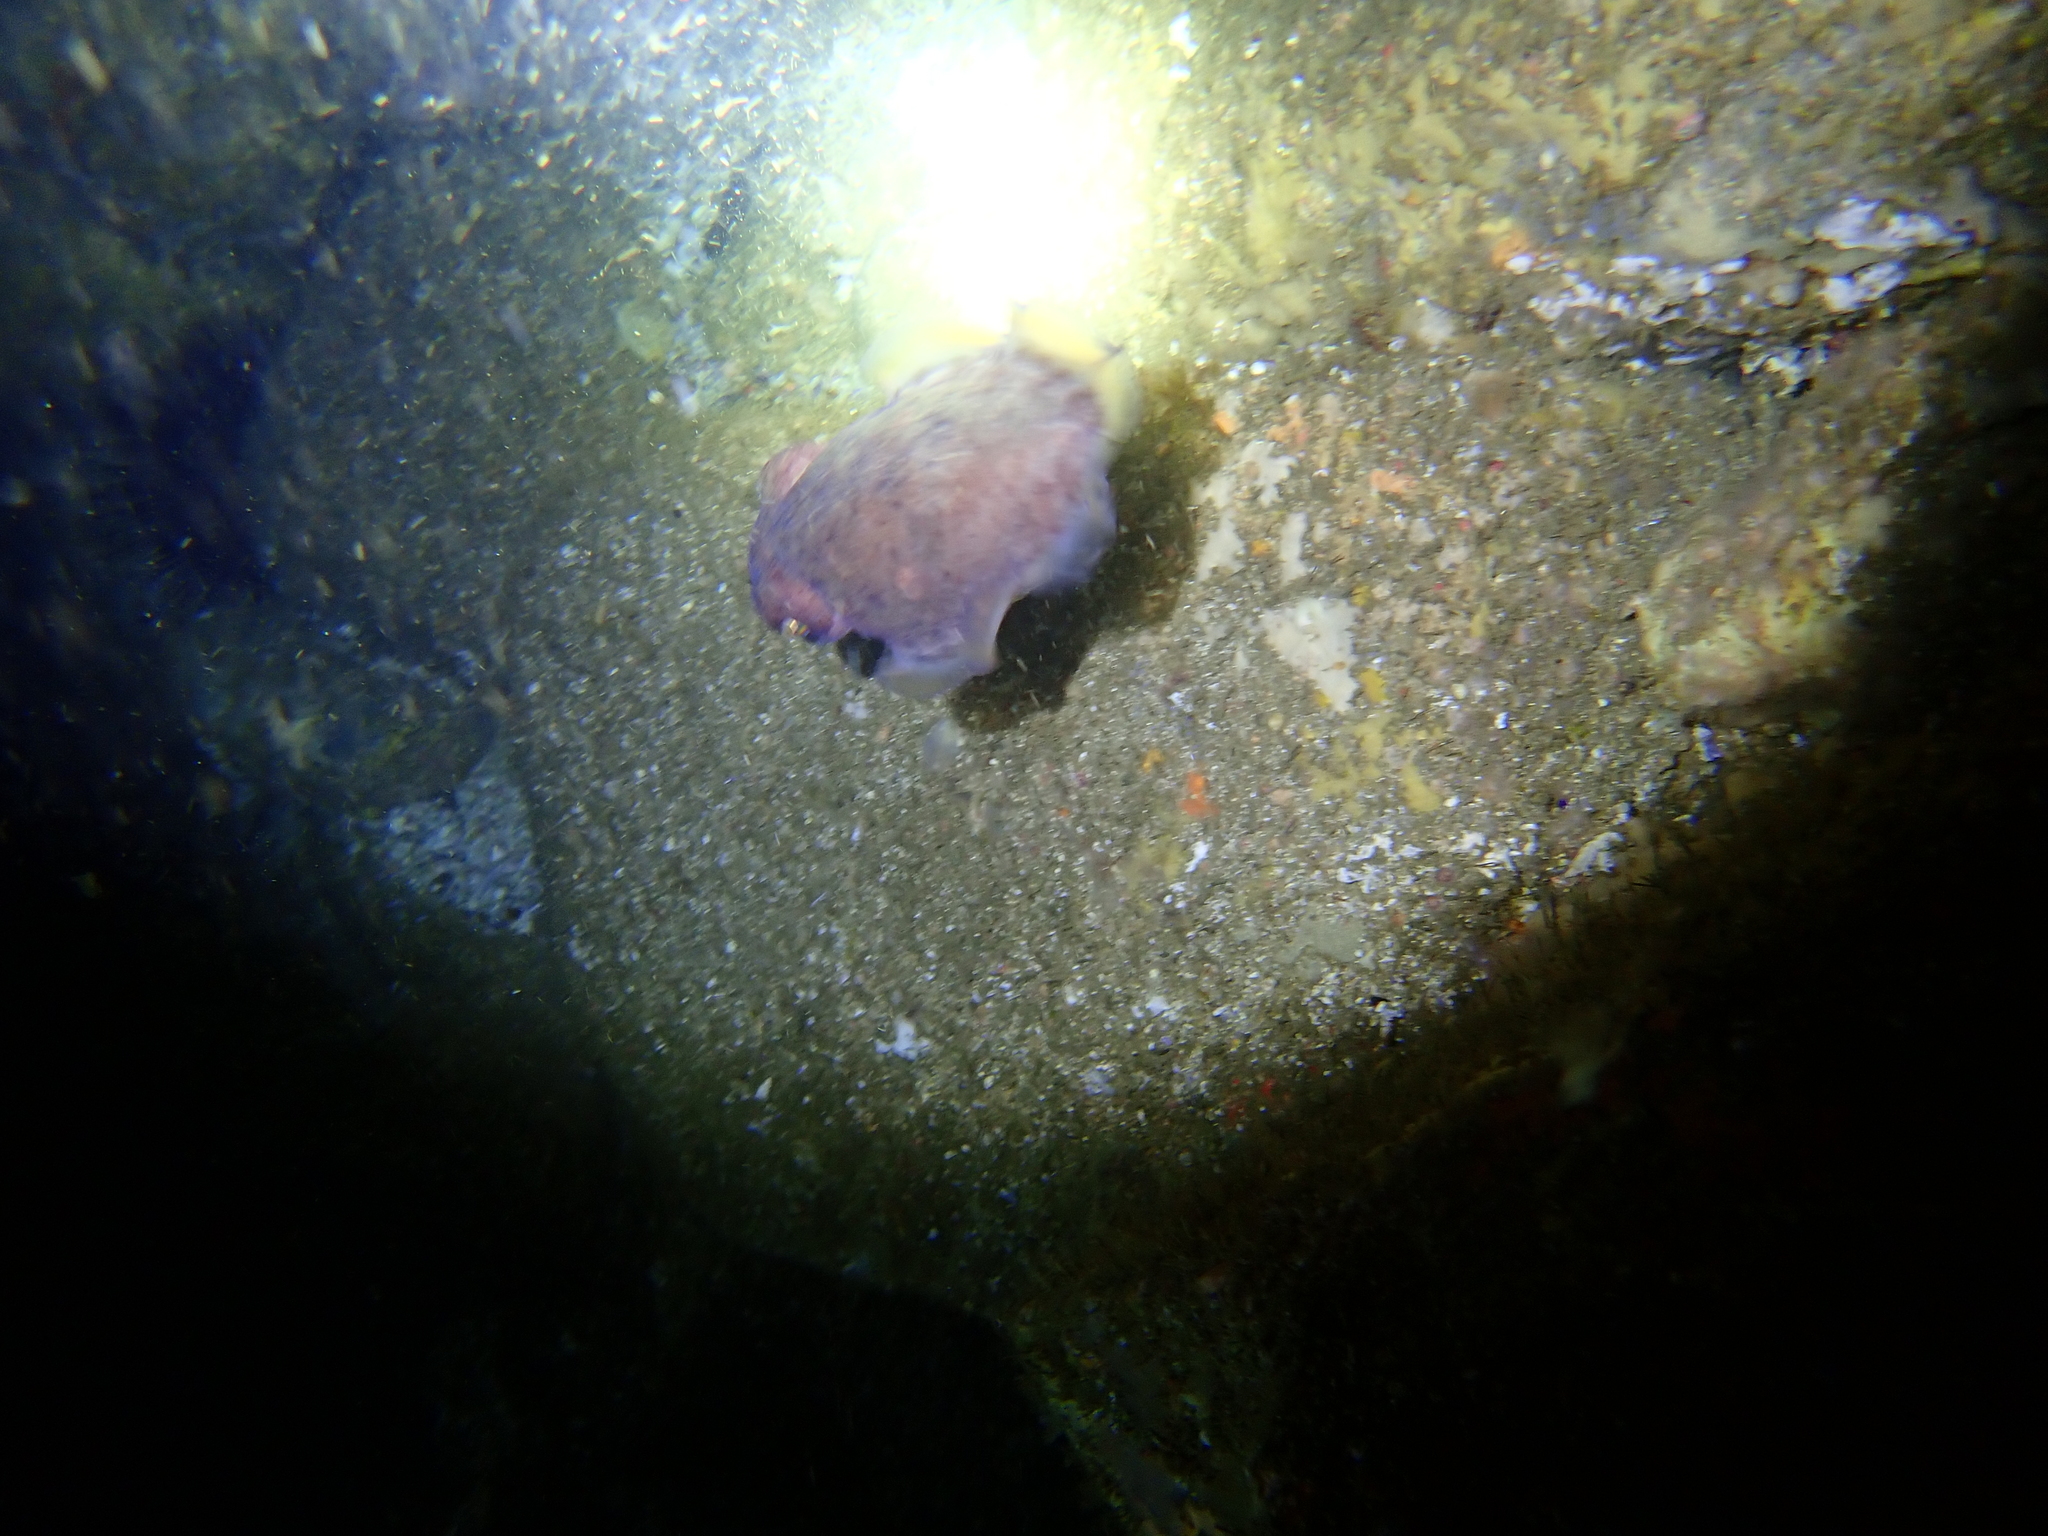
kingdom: Animalia
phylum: Mollusca
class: Cephalopoda
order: Sepiida
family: Sepiidae
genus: Ascarosepion
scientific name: Ascarosepion mestus
